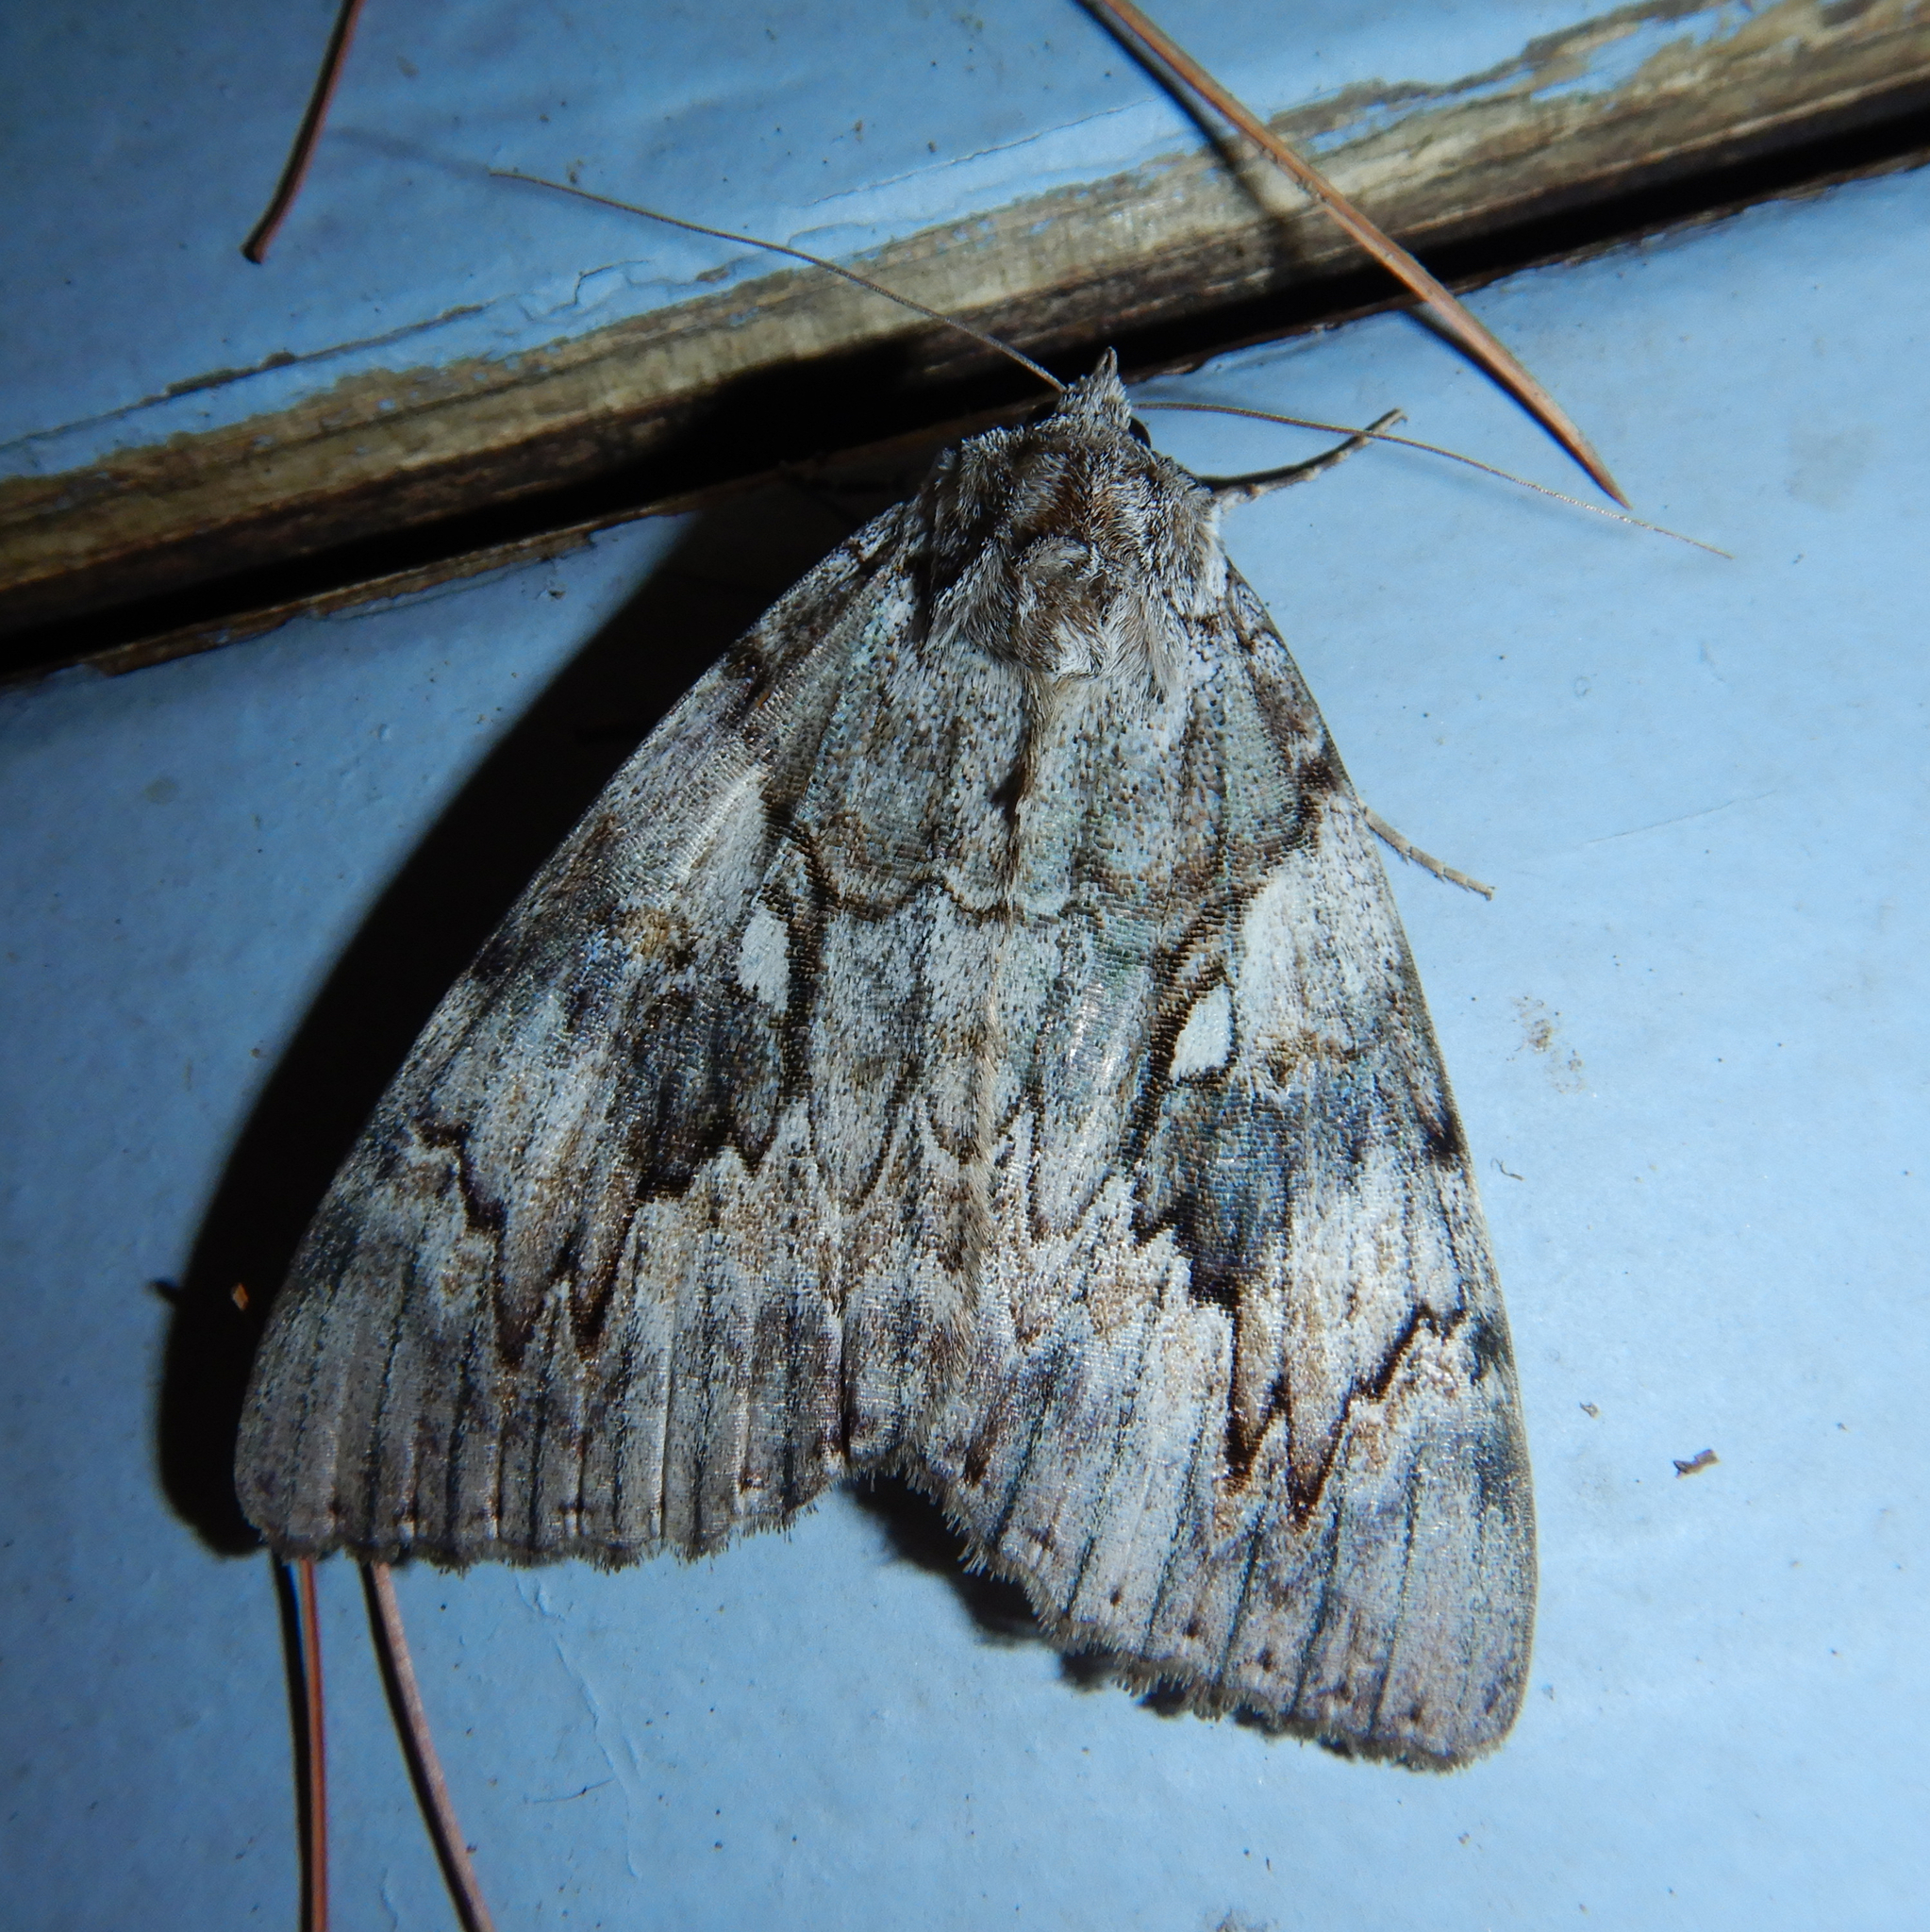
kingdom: Animalia
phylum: Arthropoda
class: Insecta
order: Lepidoptera
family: Erebidae
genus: Catocala
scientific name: Catocala cerogama
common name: Yellow banded underwing
